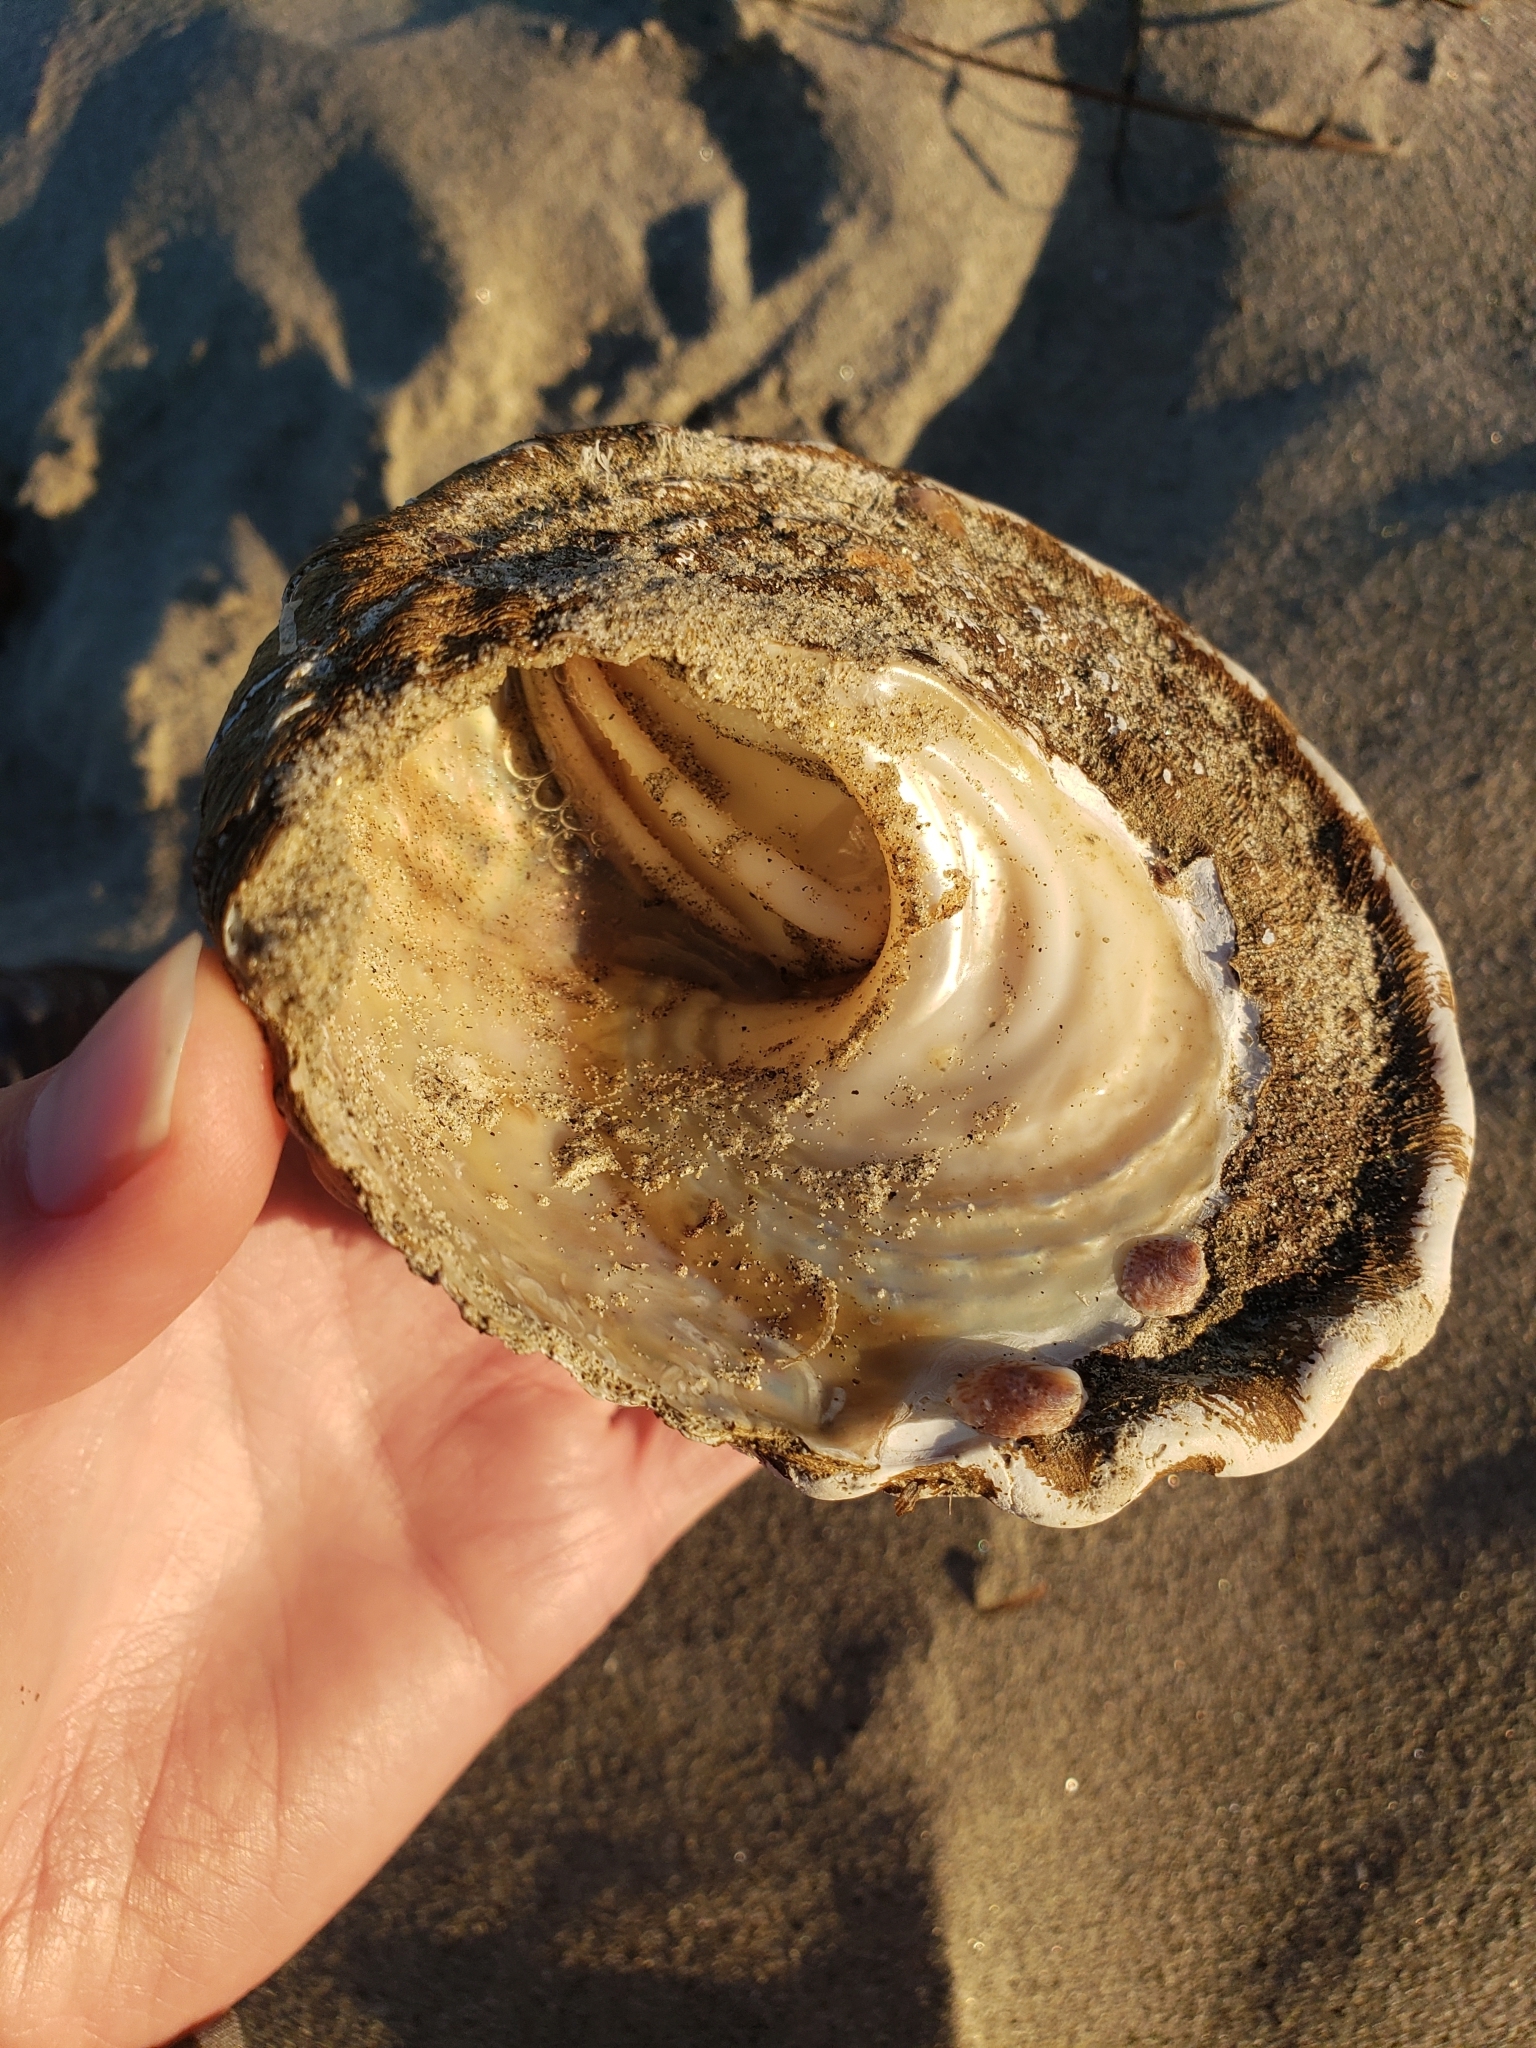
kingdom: Animalia
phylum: Mollusca
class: Gastropoda
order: Trochida
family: Turbinidae
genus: Megastraea
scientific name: Megastraea undosa
